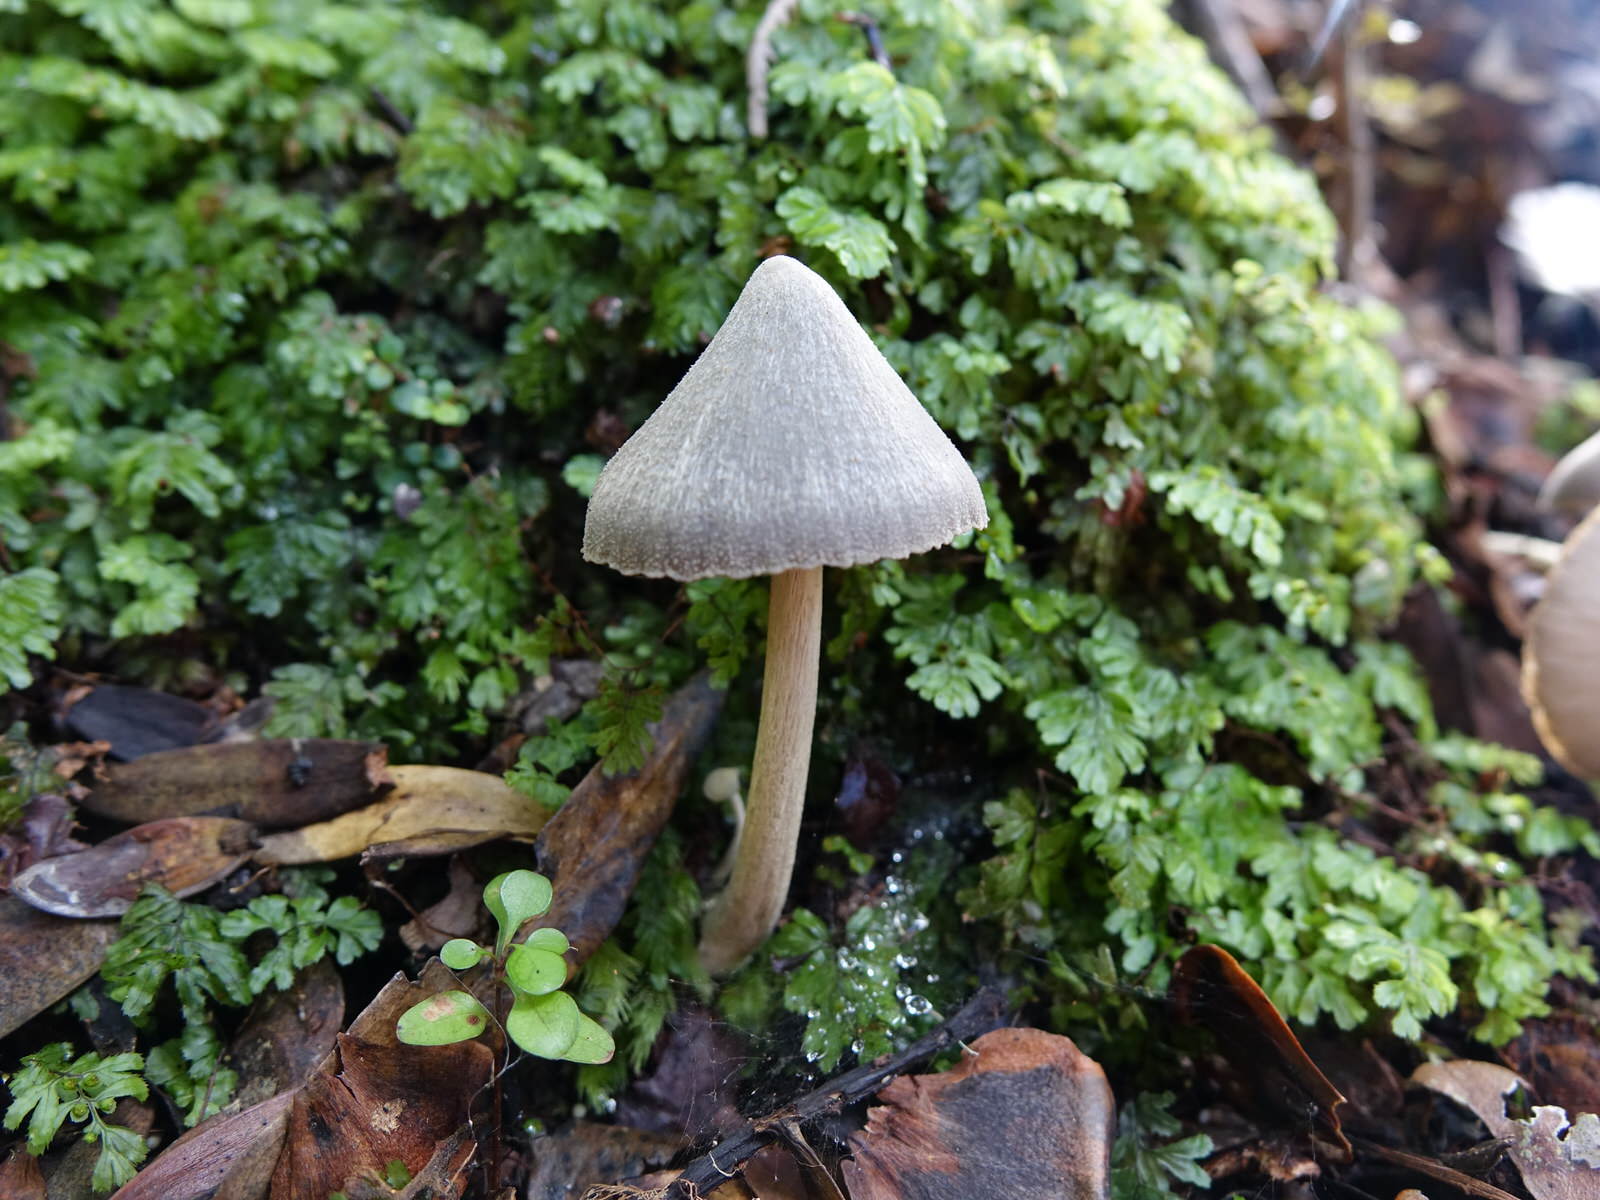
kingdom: Fungi
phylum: Basidiomycota
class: Agaricomycetes
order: Agaricales
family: Entolomataceae
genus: Entoloma
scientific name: Entoloma canoconicum
